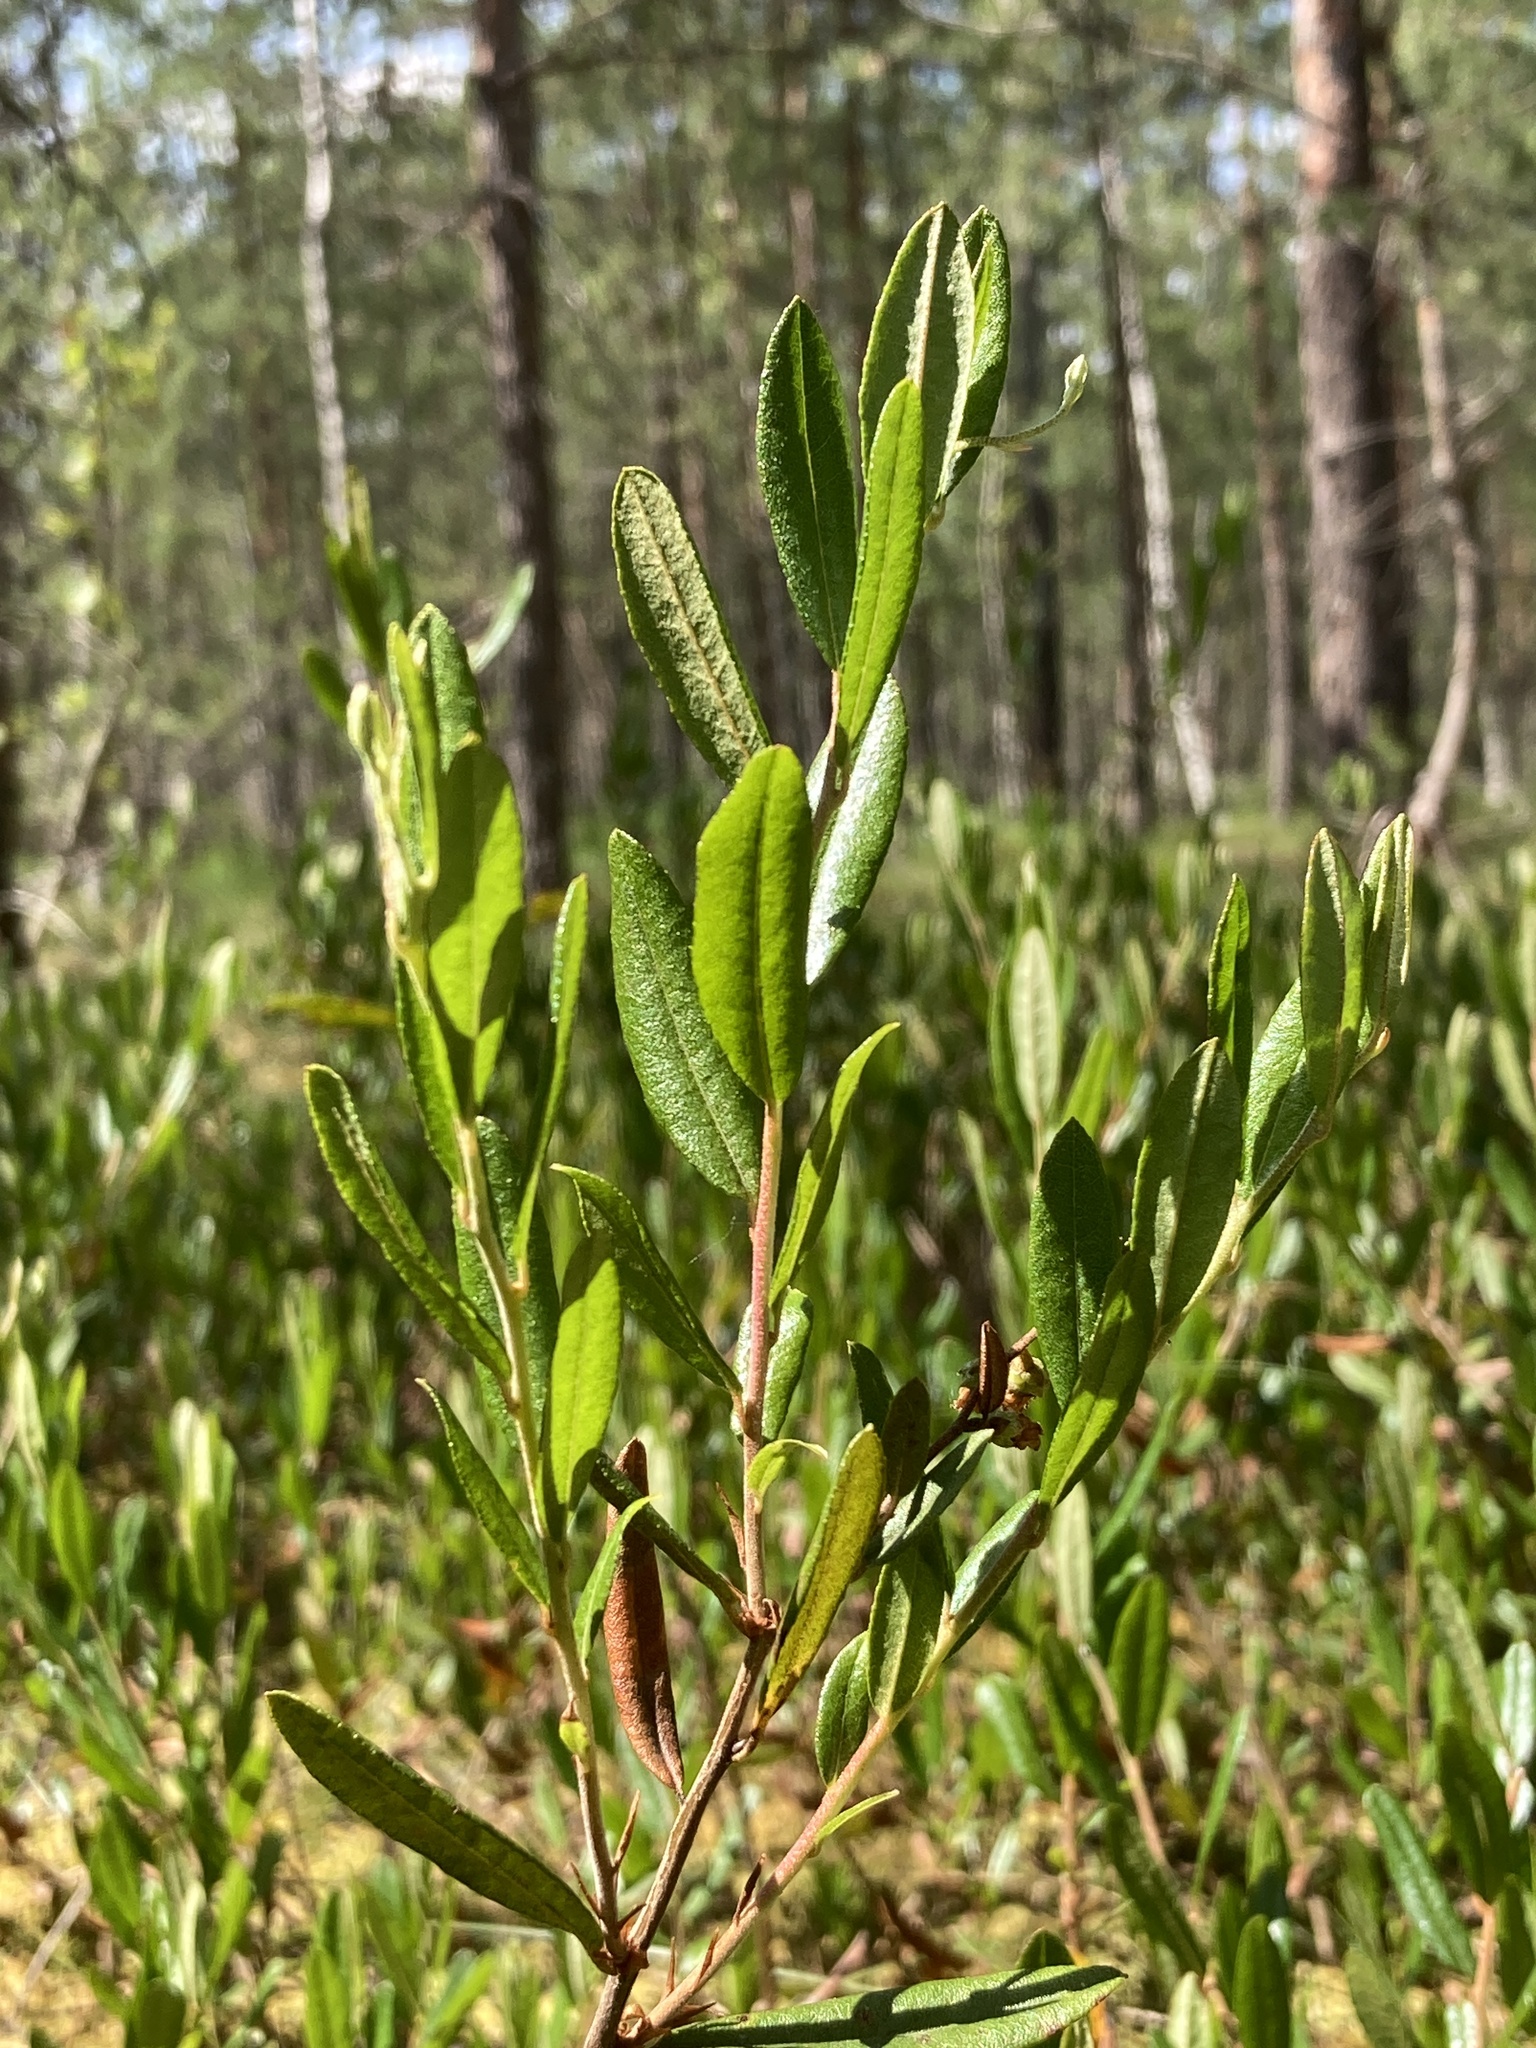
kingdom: Plantae
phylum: Tracheophyta
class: Magnoliopsida
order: Ericales
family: Ericaceae
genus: Chamaedaphne
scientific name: Chamaedaphne calyculata
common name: Leatherleaf
